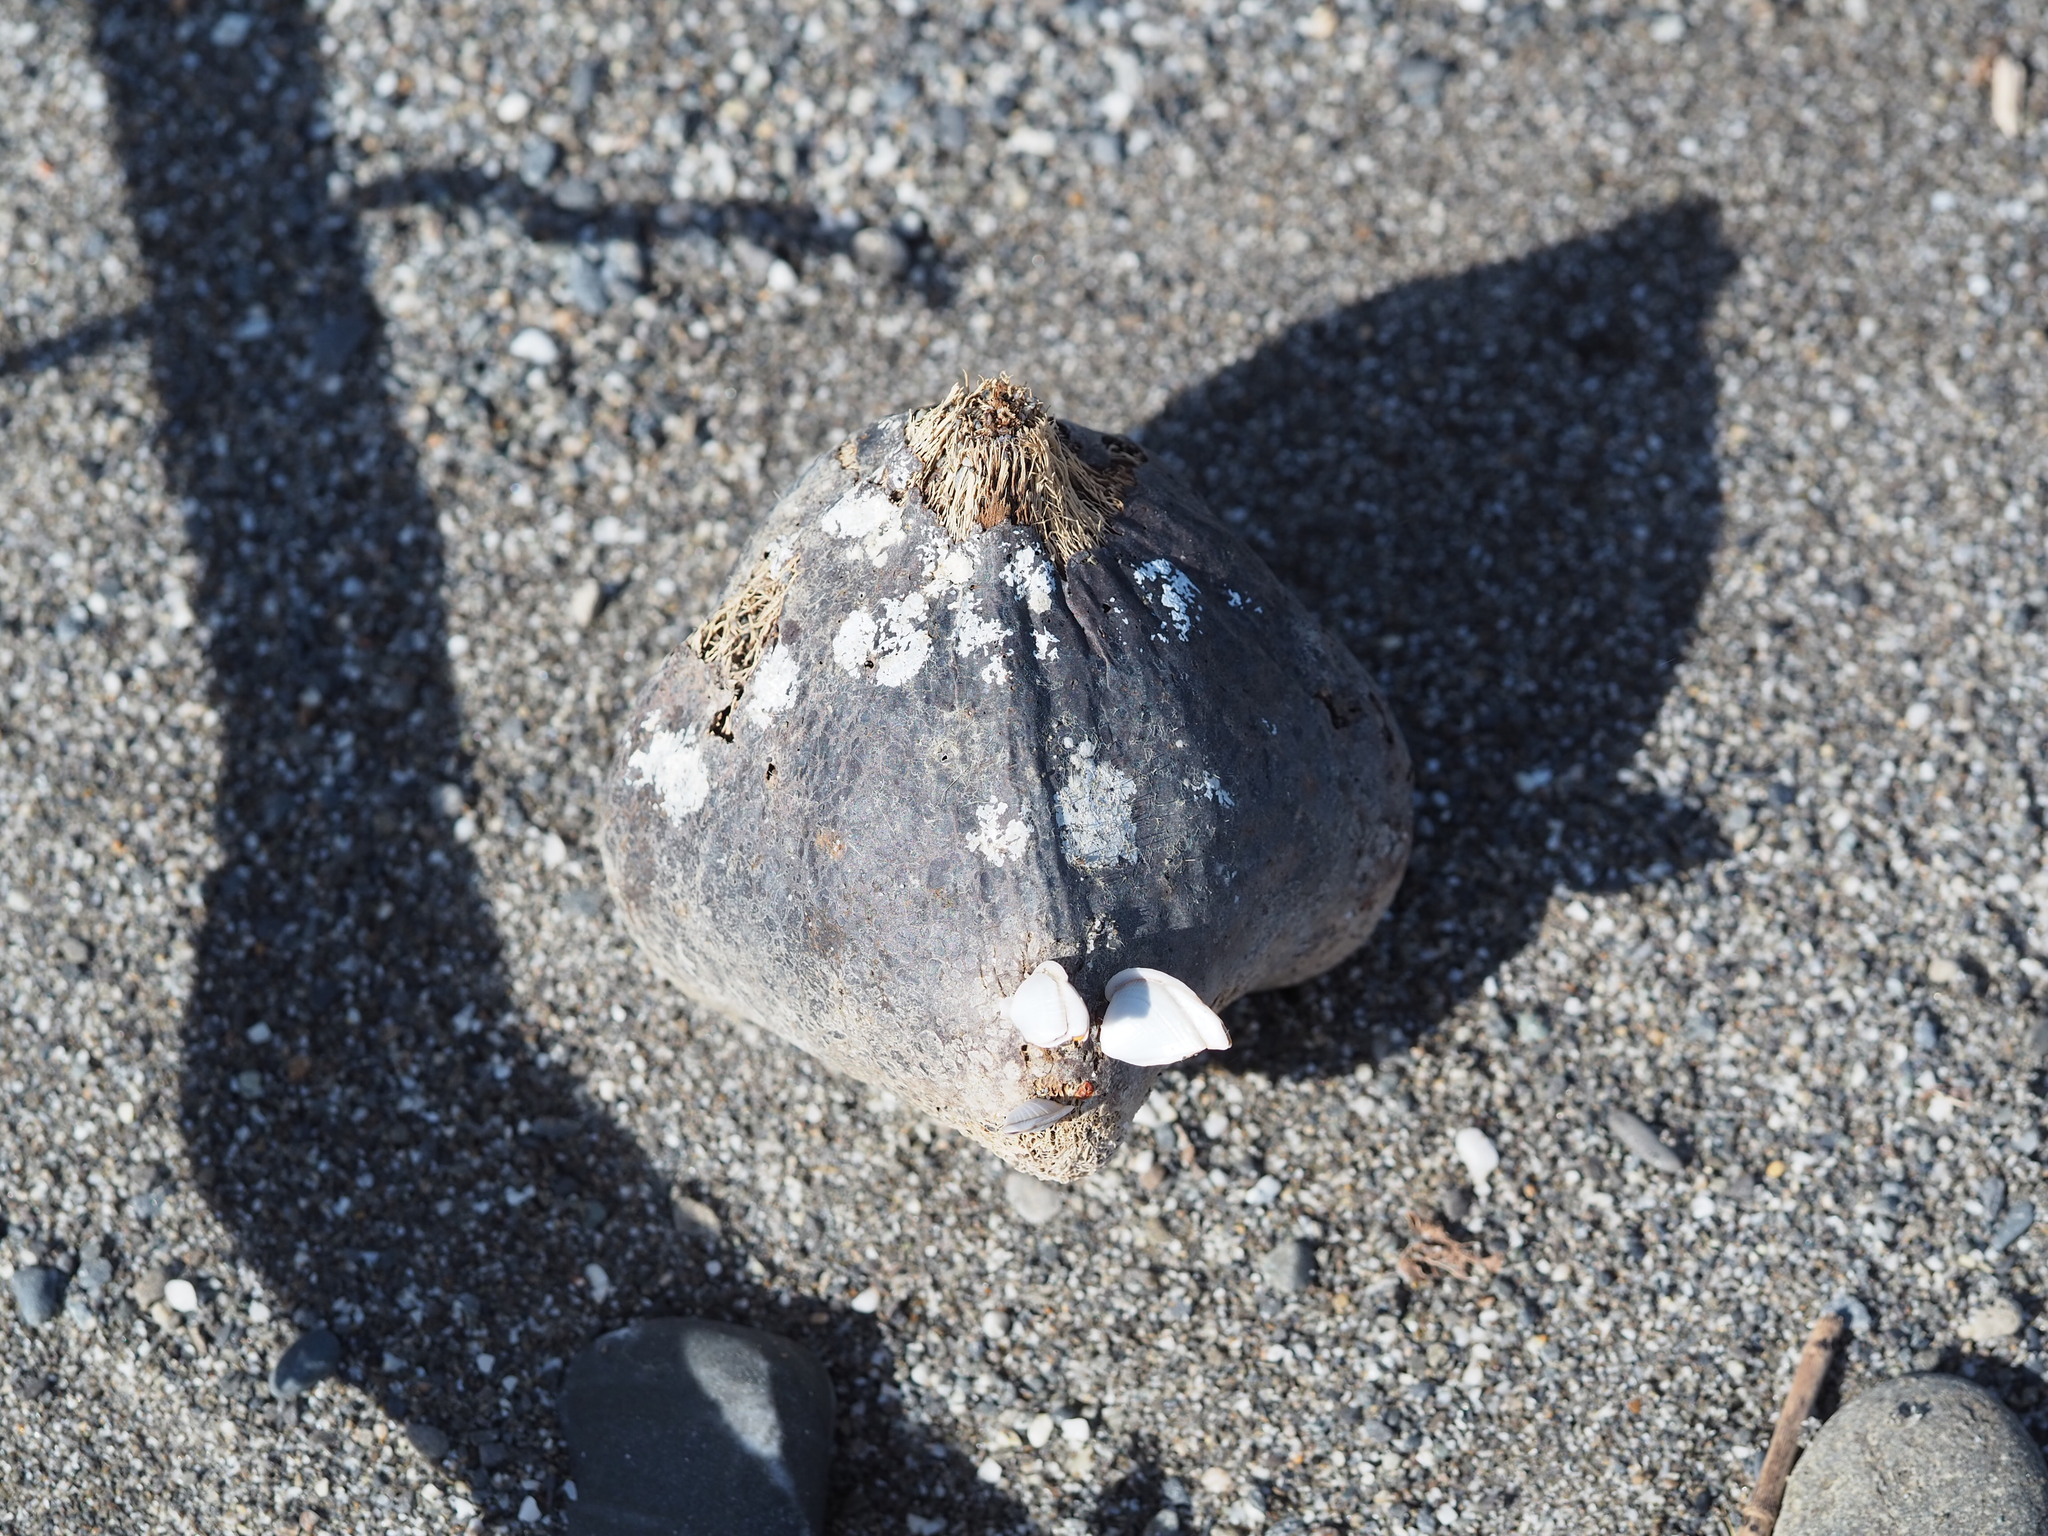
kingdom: Plantae
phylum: Tracheophyta
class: Magnoliopsida
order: Ericales
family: Lecythidaceae
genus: Barringtonia
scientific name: Barringtonia asiatica
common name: Mango-pine
